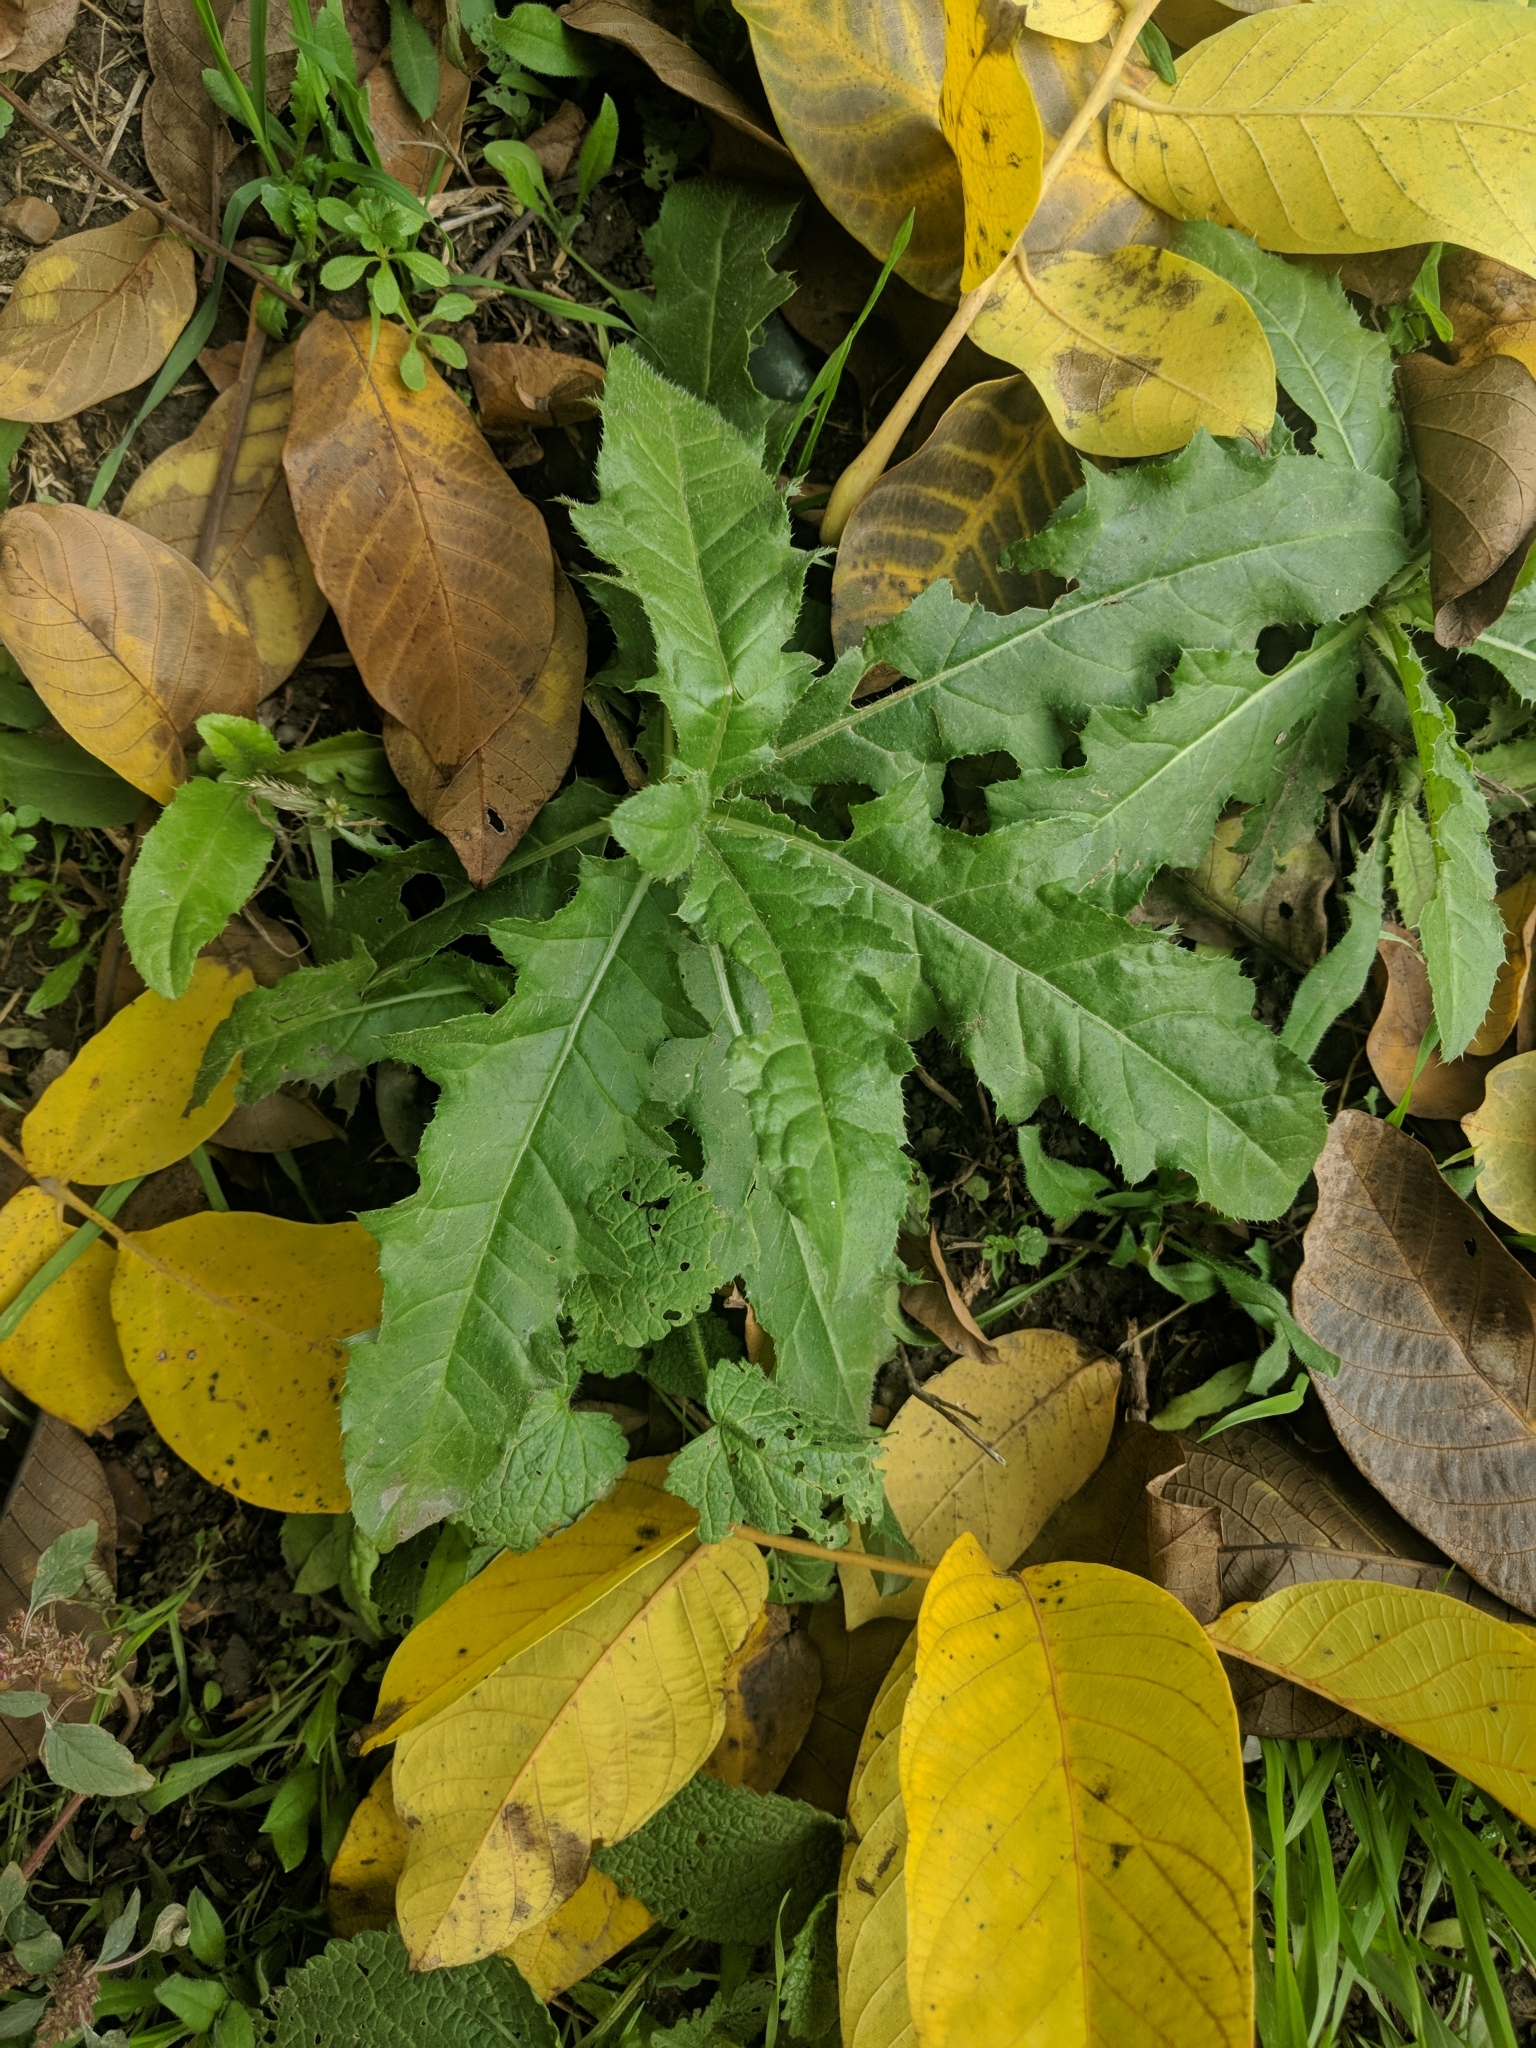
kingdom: Plantae
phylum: Tracheophyta
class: Magnoliopsida
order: Asterales
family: Asteraceae
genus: Cirsium
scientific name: Cirsium arvense
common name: Creeping thistle
